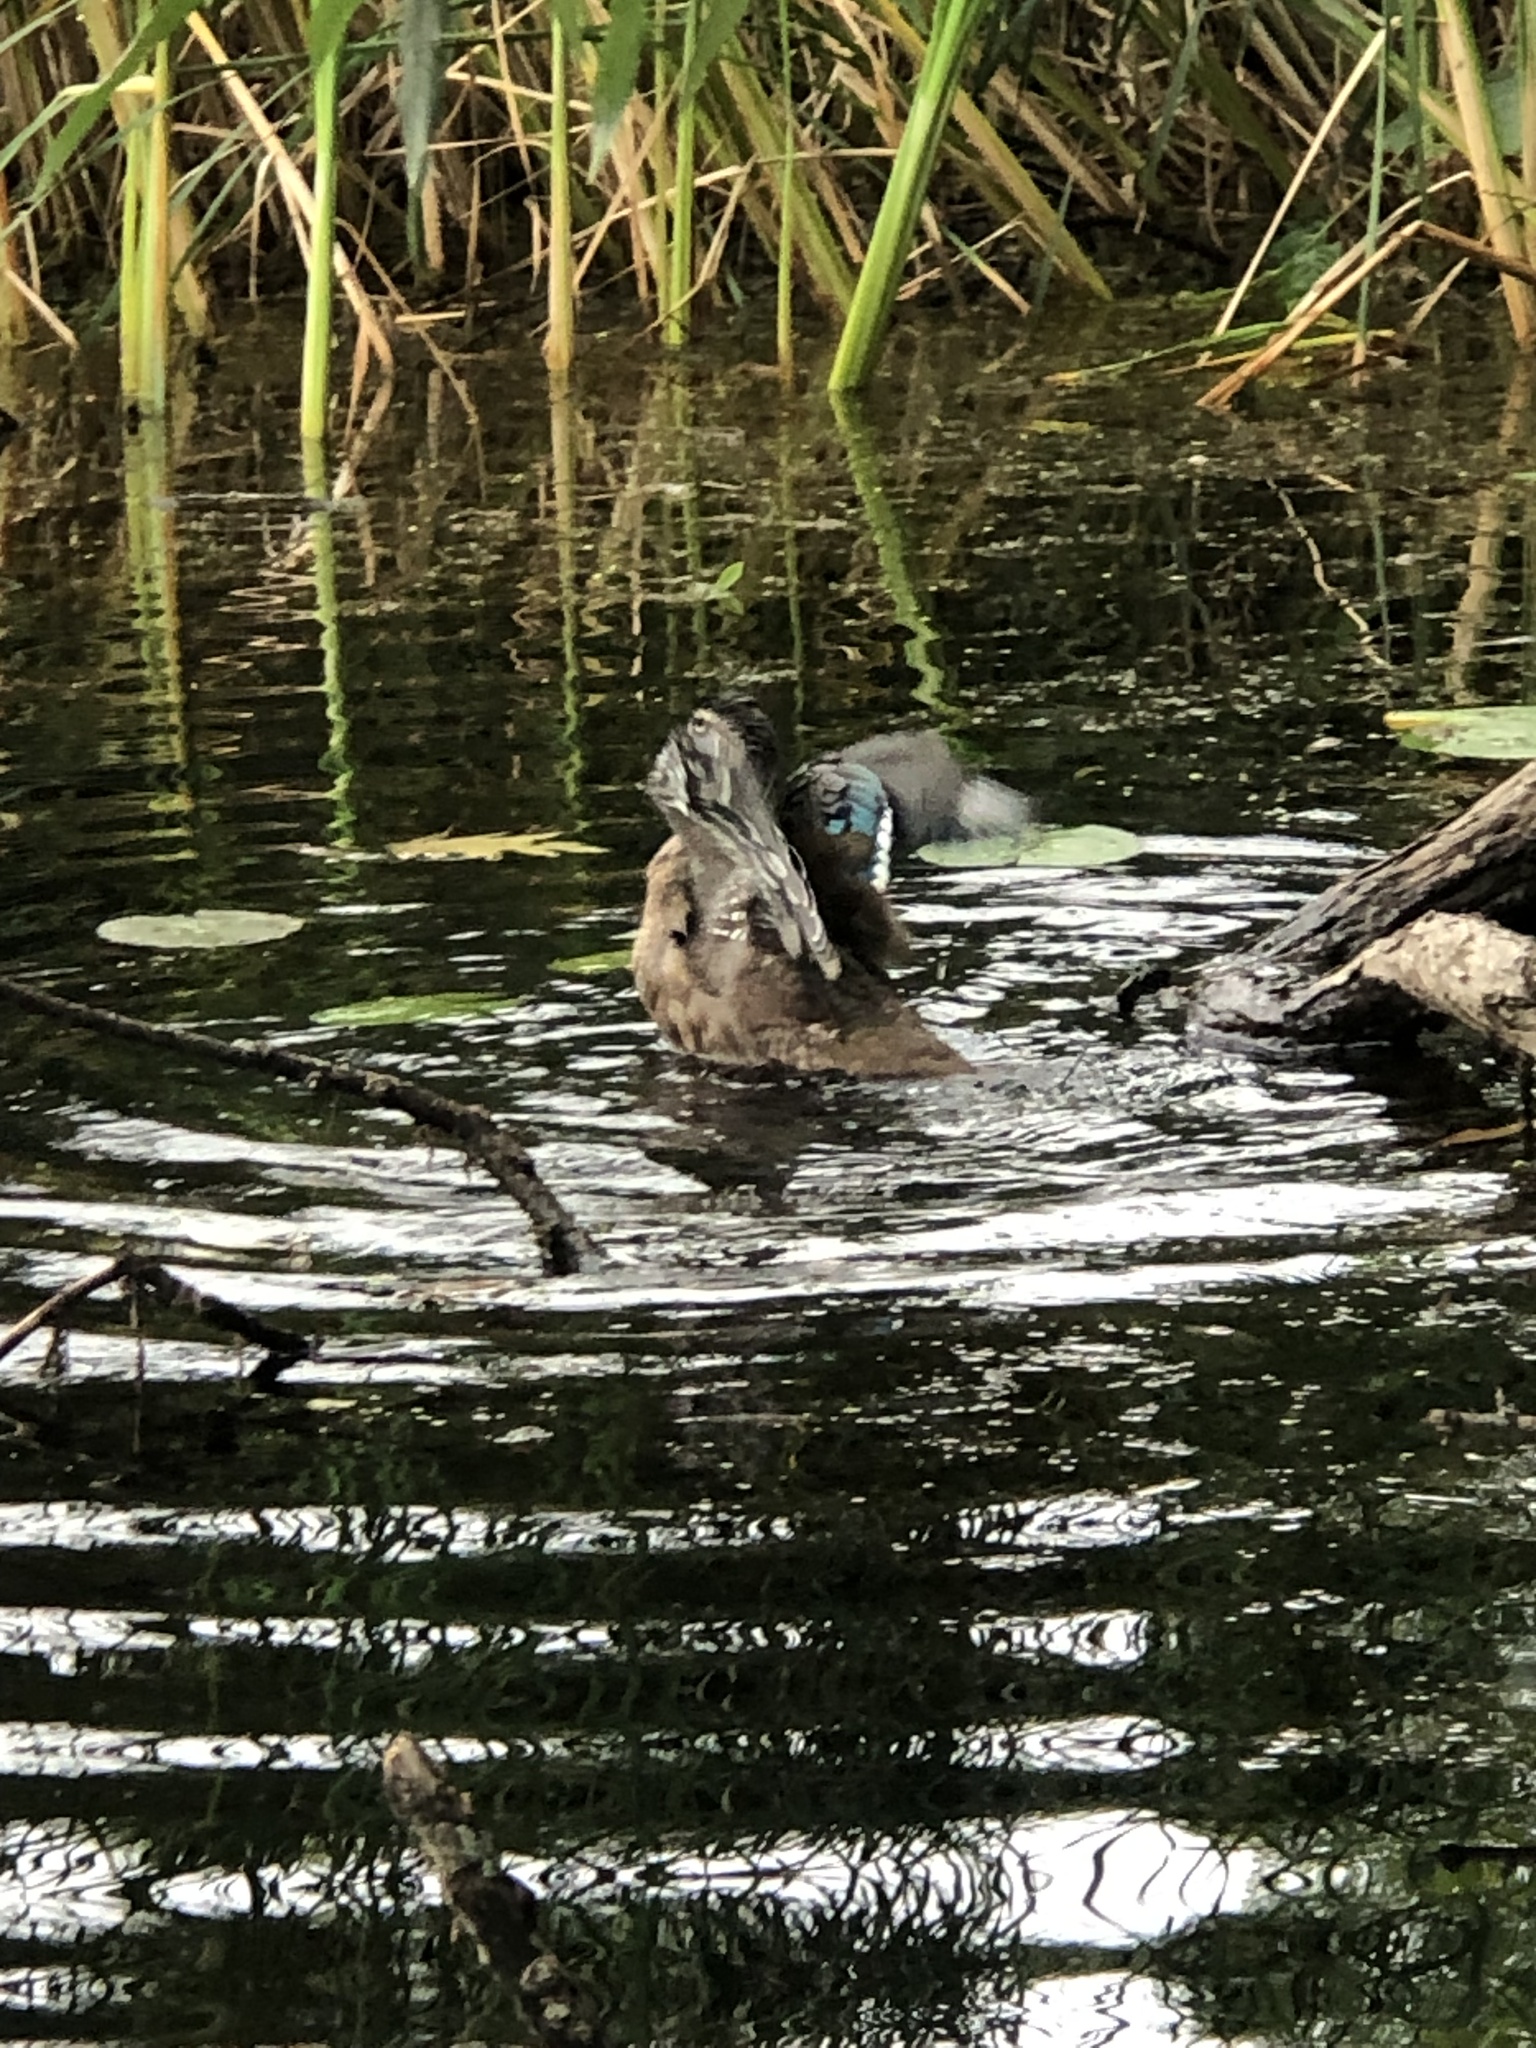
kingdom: Animalia
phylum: Chordata
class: Aves
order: Anseriformes
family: Anatidae
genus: Aix
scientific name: Aix sponsa
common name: Wood duck
